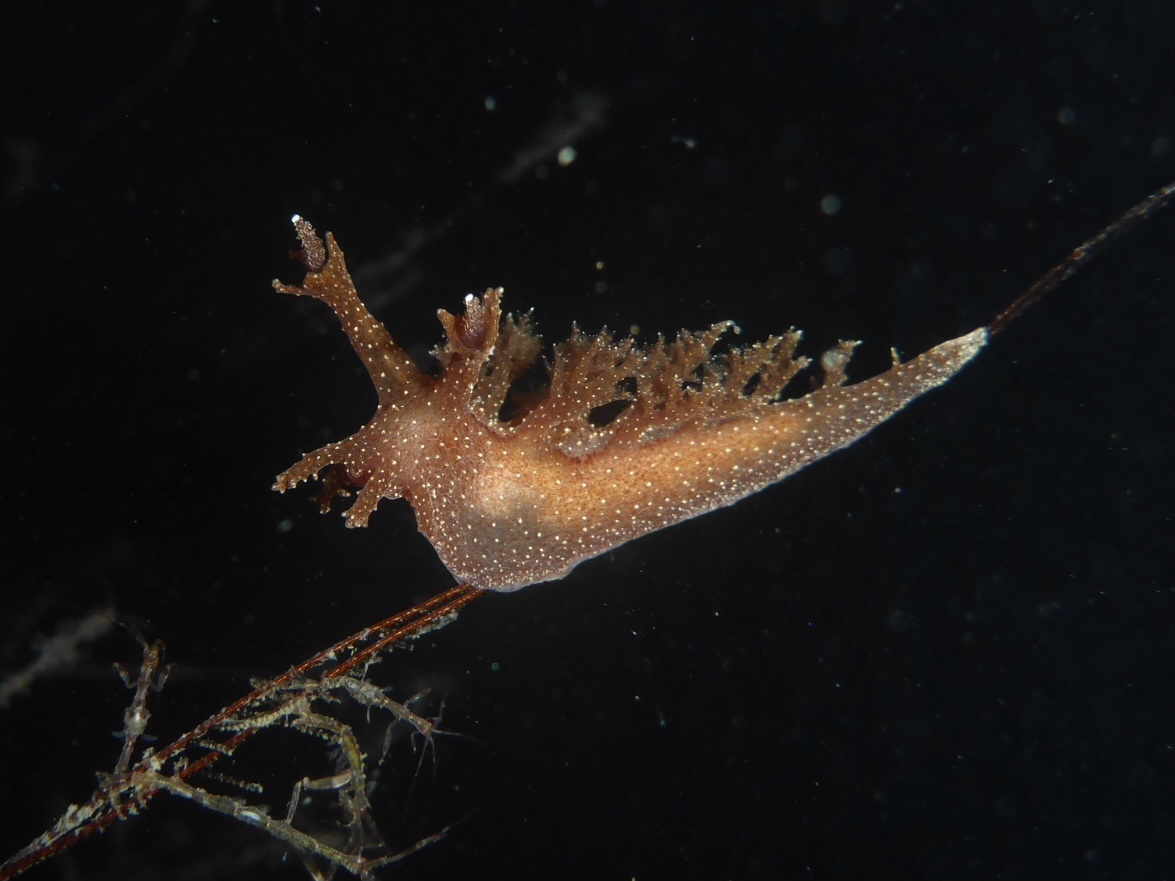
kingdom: Animalia
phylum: Mollusca
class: Gastropoda
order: Nudibranchia
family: Dendronotidae
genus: Dendronotus
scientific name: Dendronotus subramosus
